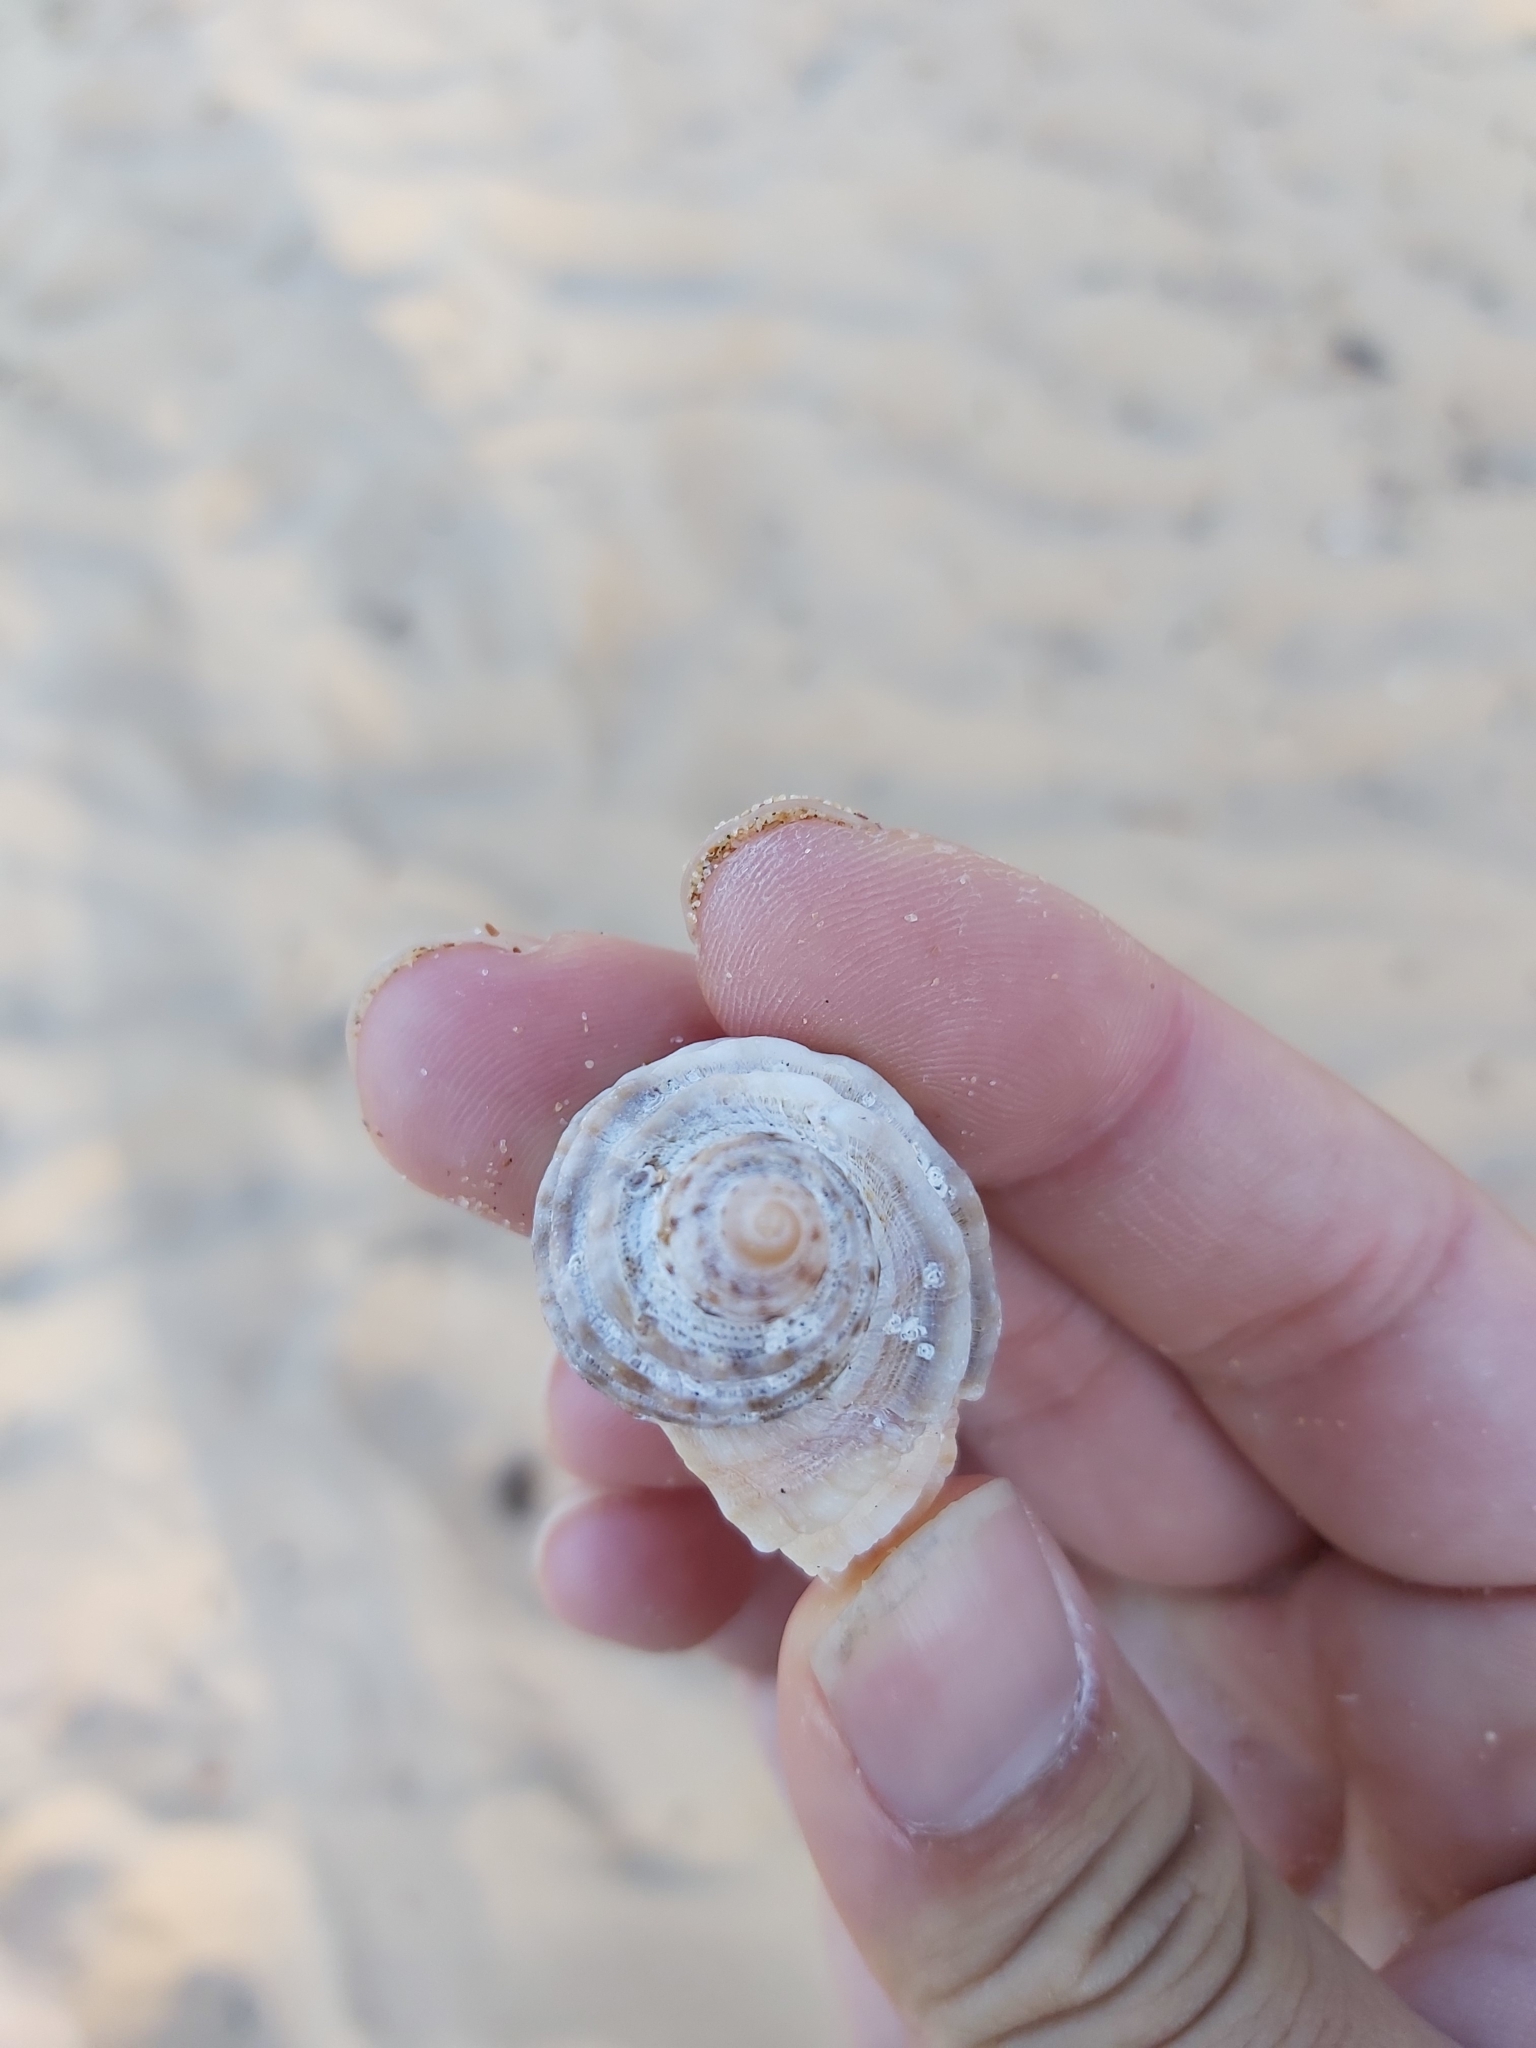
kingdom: Animalia
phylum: Mollusca
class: Gastropoda
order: Neogastropoda
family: Muricidae
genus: Dicathais
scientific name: Dicathais orbita
